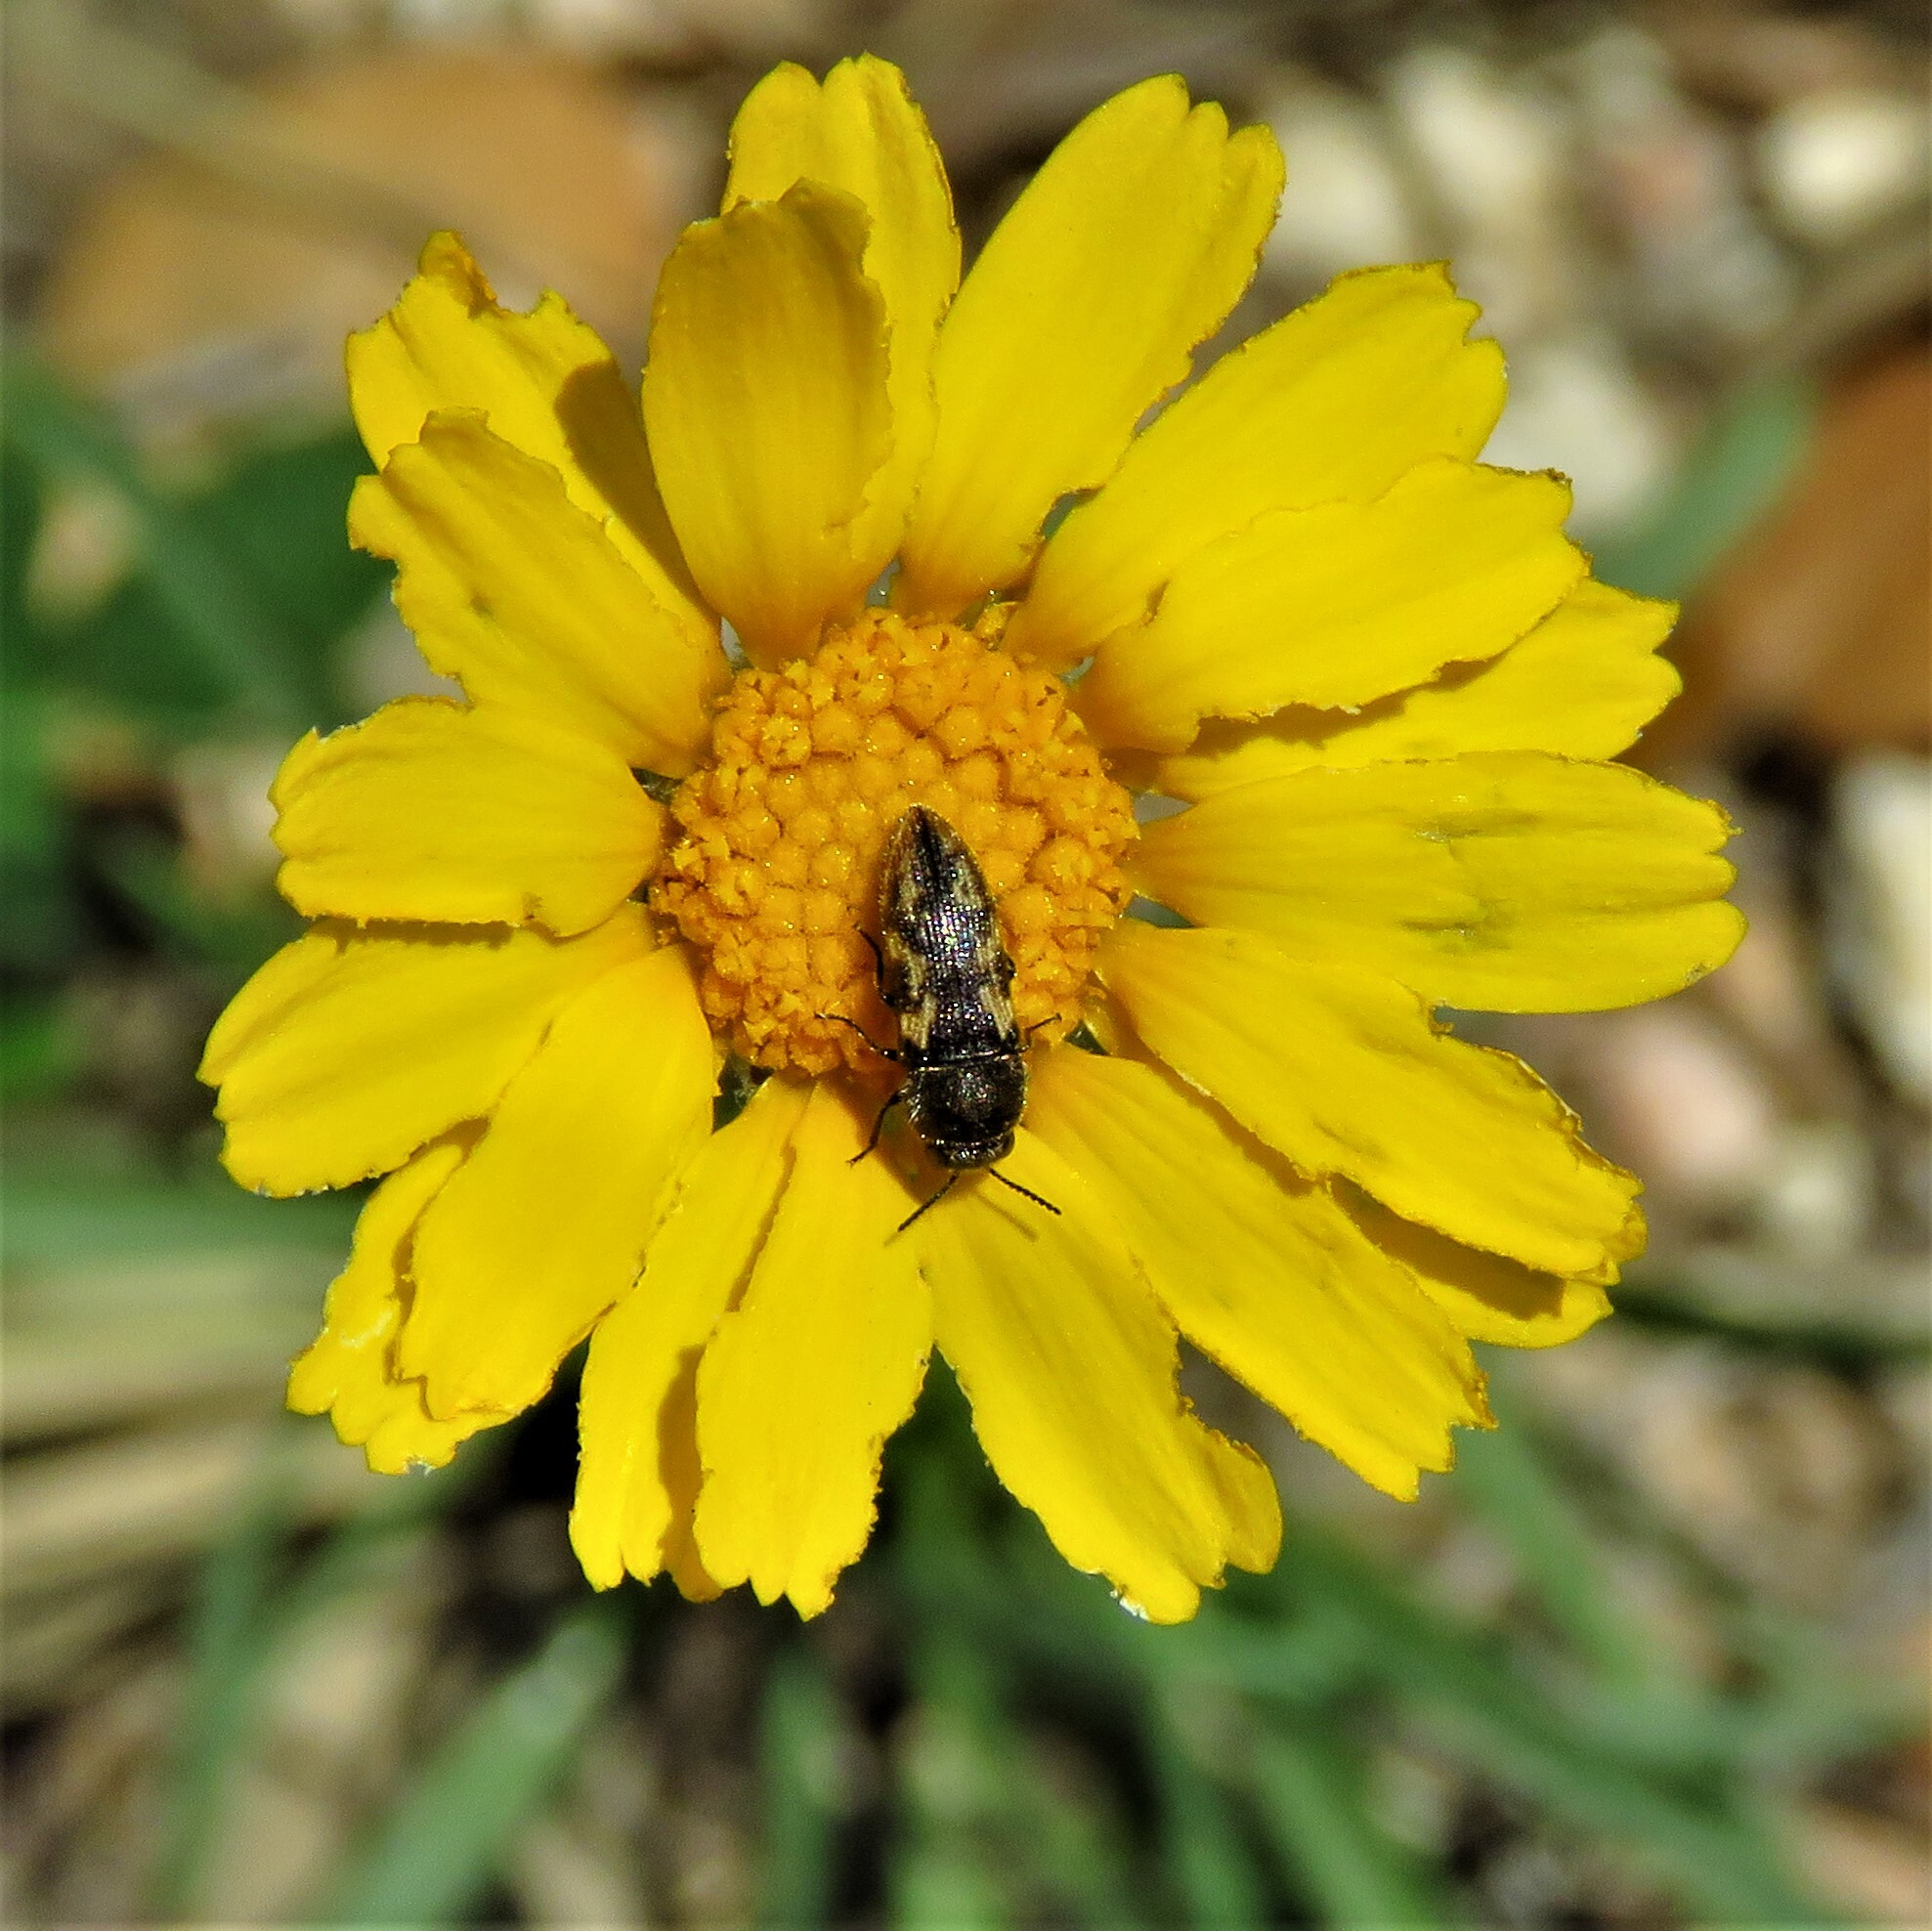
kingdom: Animalia
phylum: Arthropoda
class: Insecta
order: Coleoptera
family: Buprestidae
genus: Acmaeodera
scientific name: Acmaeodera neglecta
